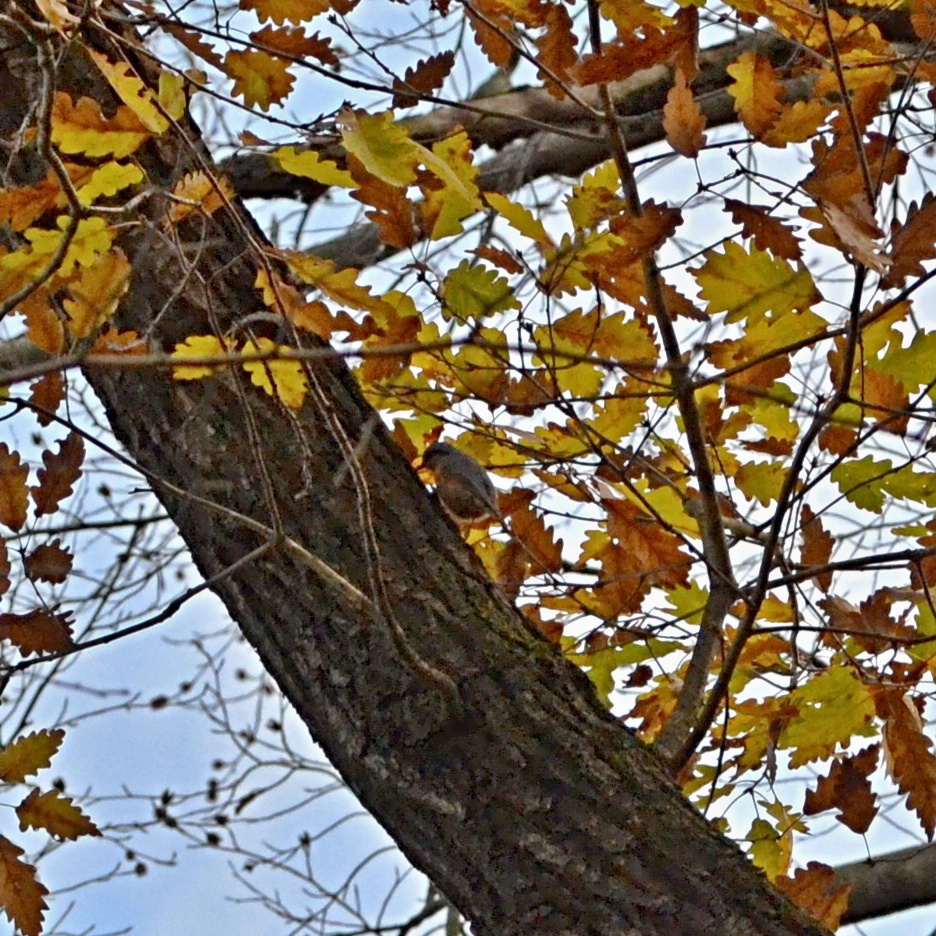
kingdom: Animalia
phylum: Chordata
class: Aves
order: Passeriformes
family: Sittidae
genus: Sitta
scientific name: Sitta europaea
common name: Eurasian nuthatch
